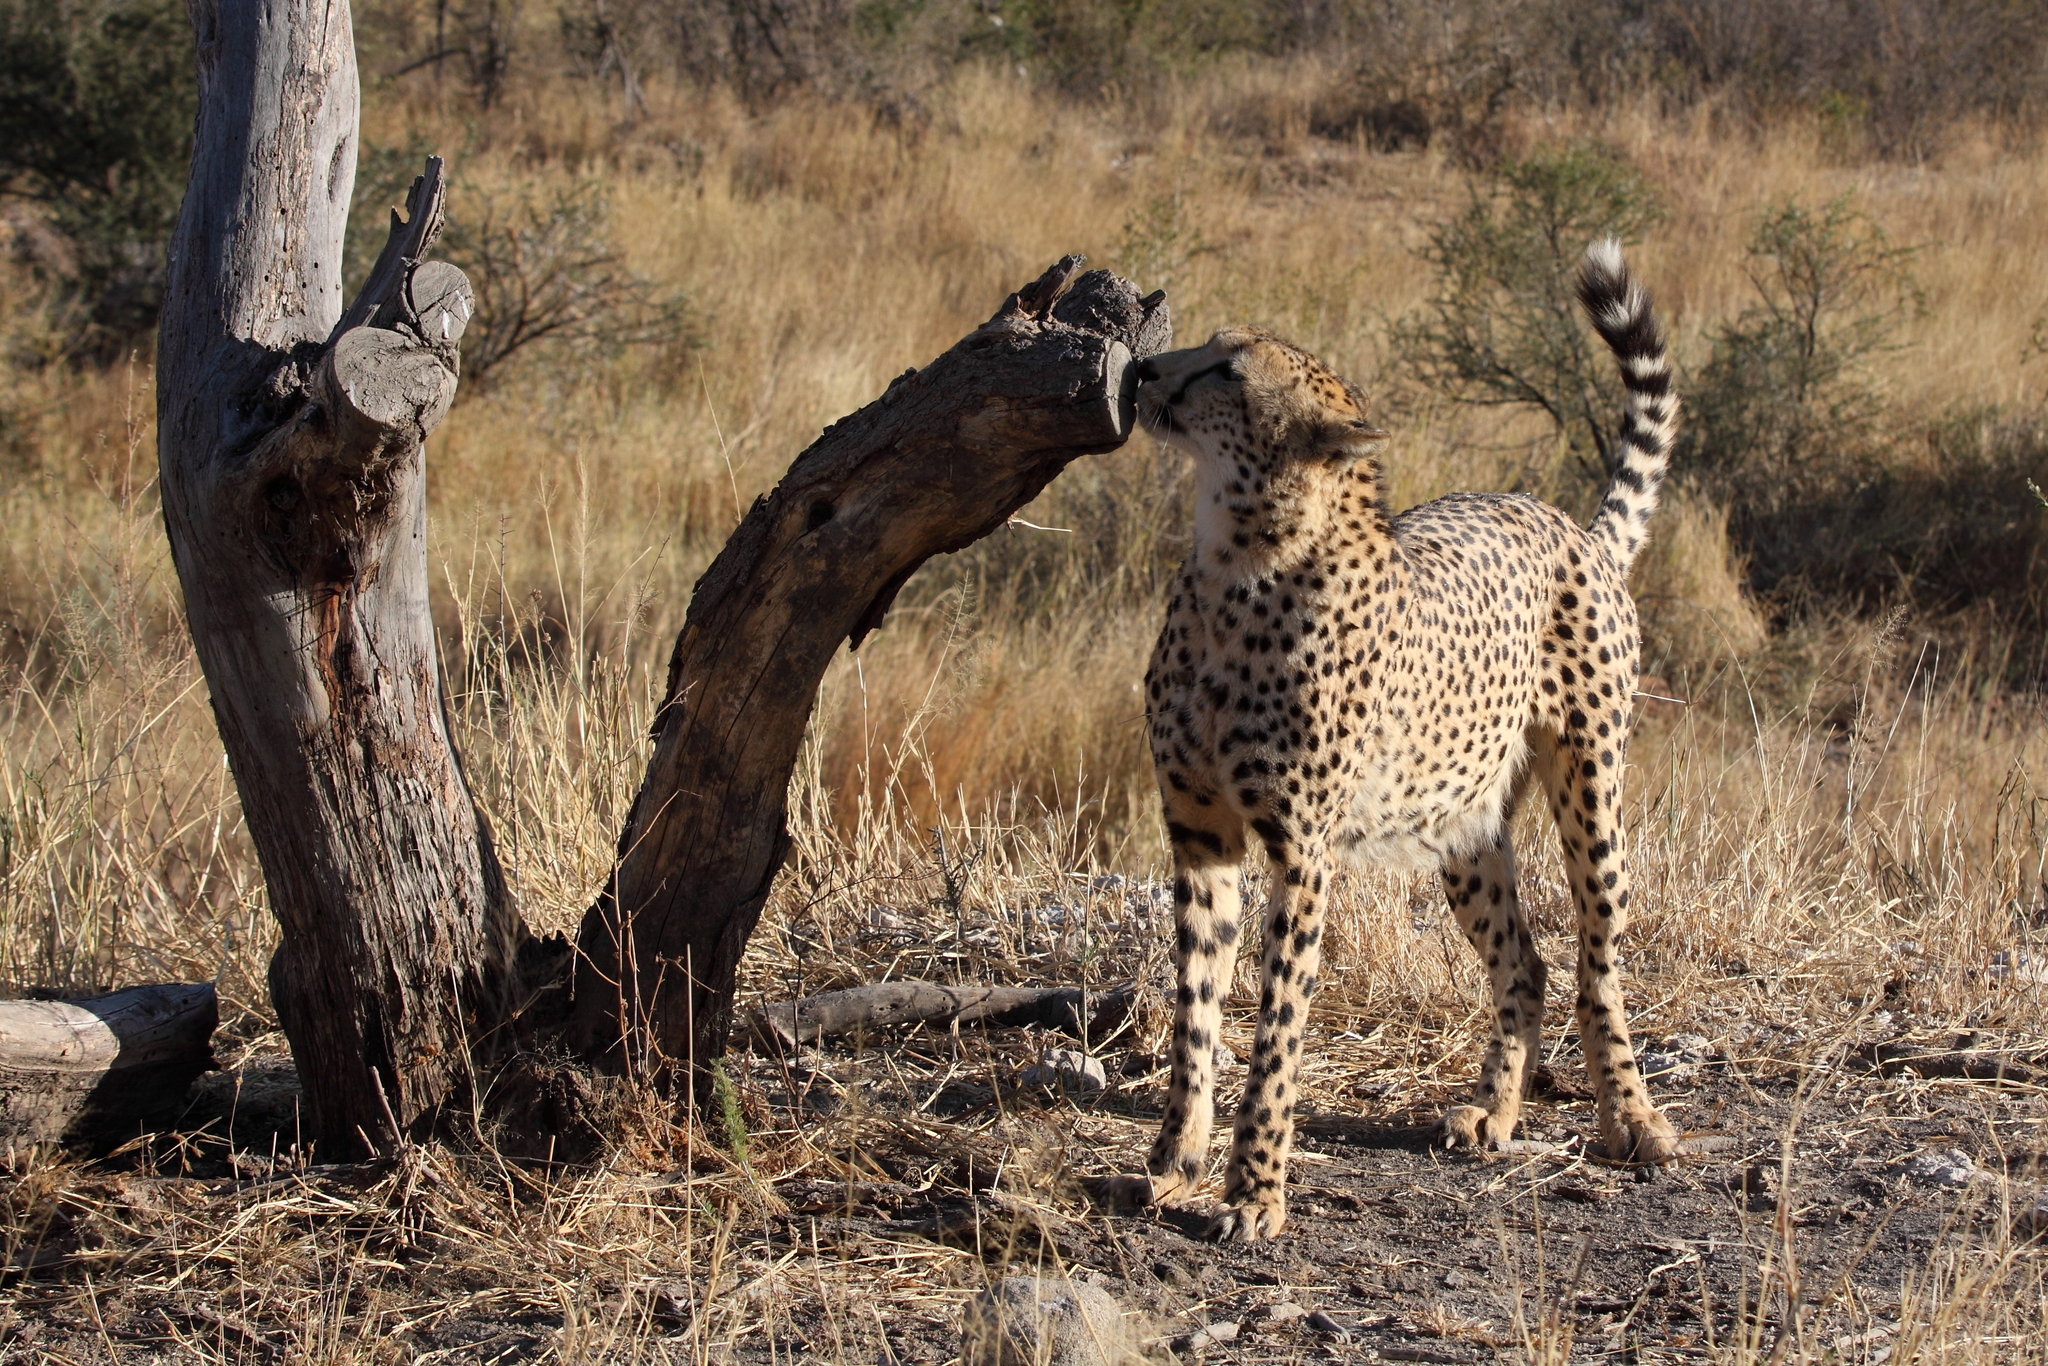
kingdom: Animalia
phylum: Chordata
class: Mammalia
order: Carnivora
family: Felidae
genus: Acinonyx
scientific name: Acinonyx jubatus
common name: Cheetah
